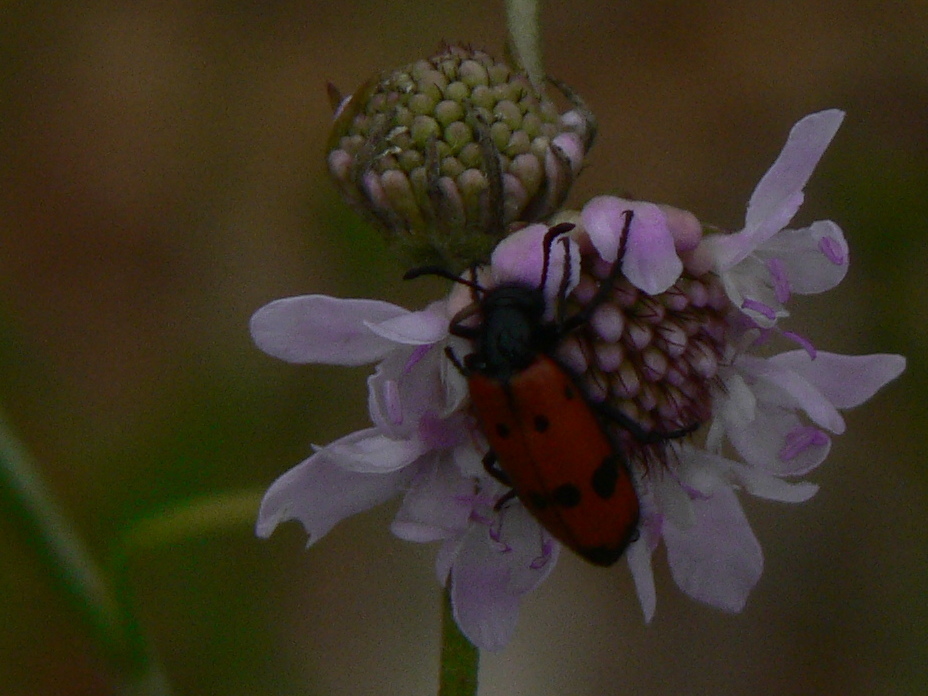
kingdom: Animalia
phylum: Arthropoda
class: Insecta
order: Coleoptera
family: Meloidae
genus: Mylabris
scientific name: Mylabris quadripunctata
